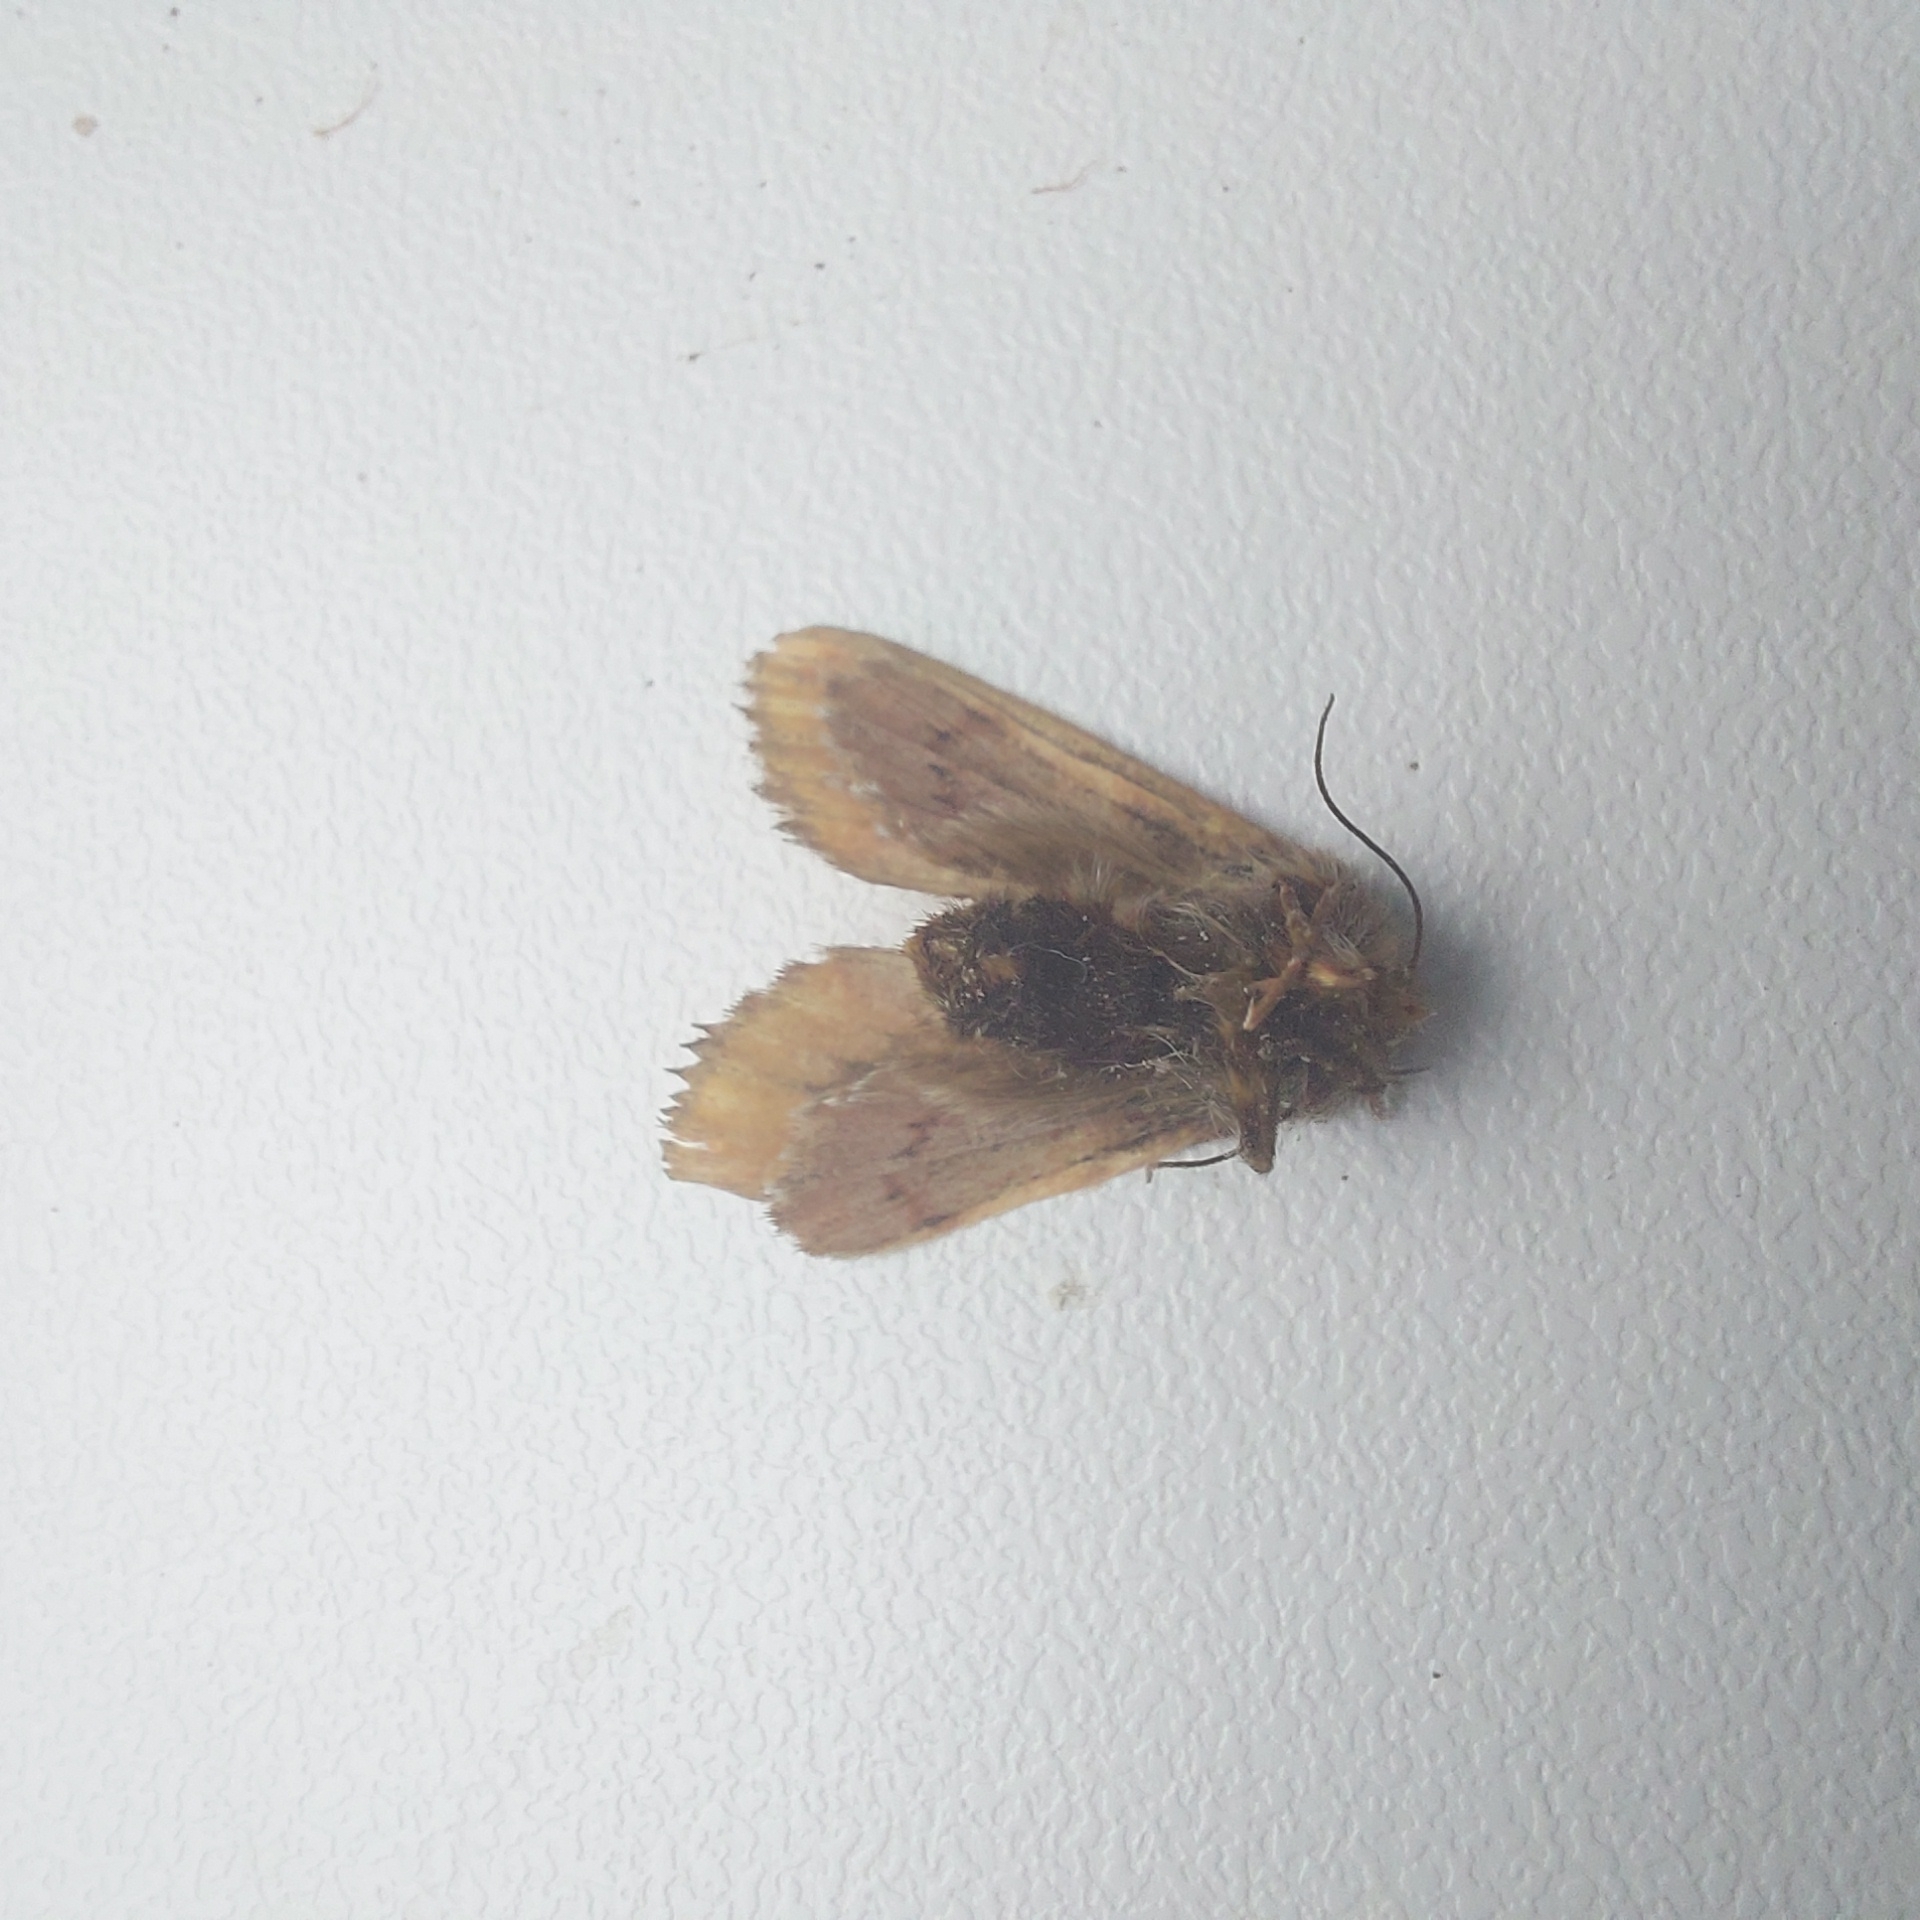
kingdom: Animalia
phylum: Arthropoda
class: Insecta
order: Lepidoptera
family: Noctuidae
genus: Panolis
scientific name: Panolis flammea
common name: Pine beauty
